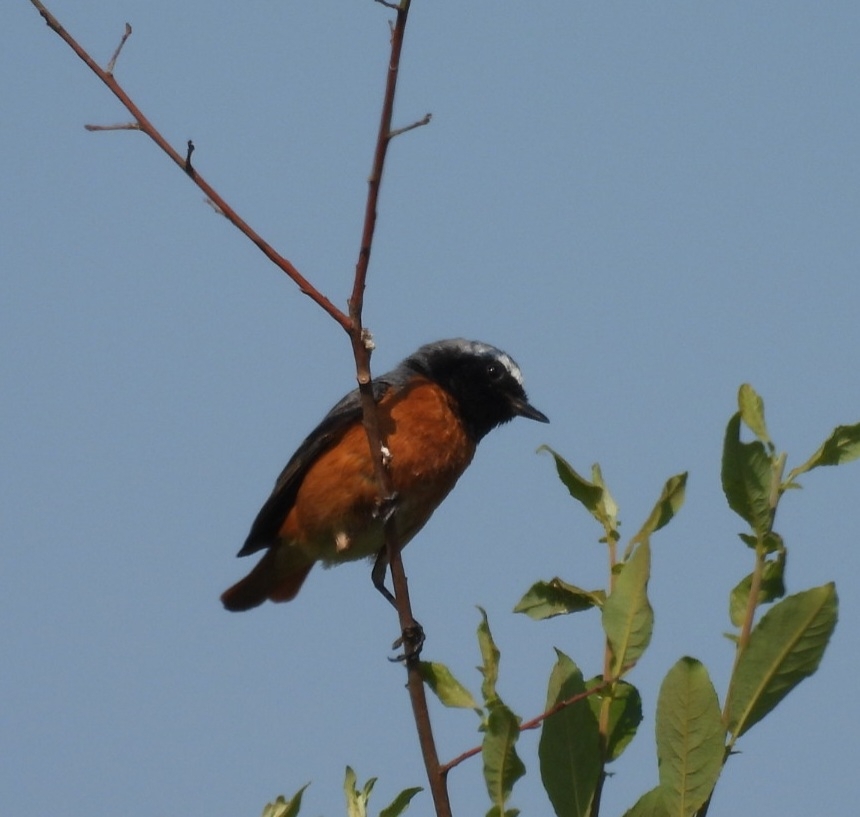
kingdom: Animalia
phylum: Chordata
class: Aves
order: Passeriformes
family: Muscicapidae
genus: Phoenicurus
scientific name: Phoenicurus phoenicurus
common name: Common redstart
